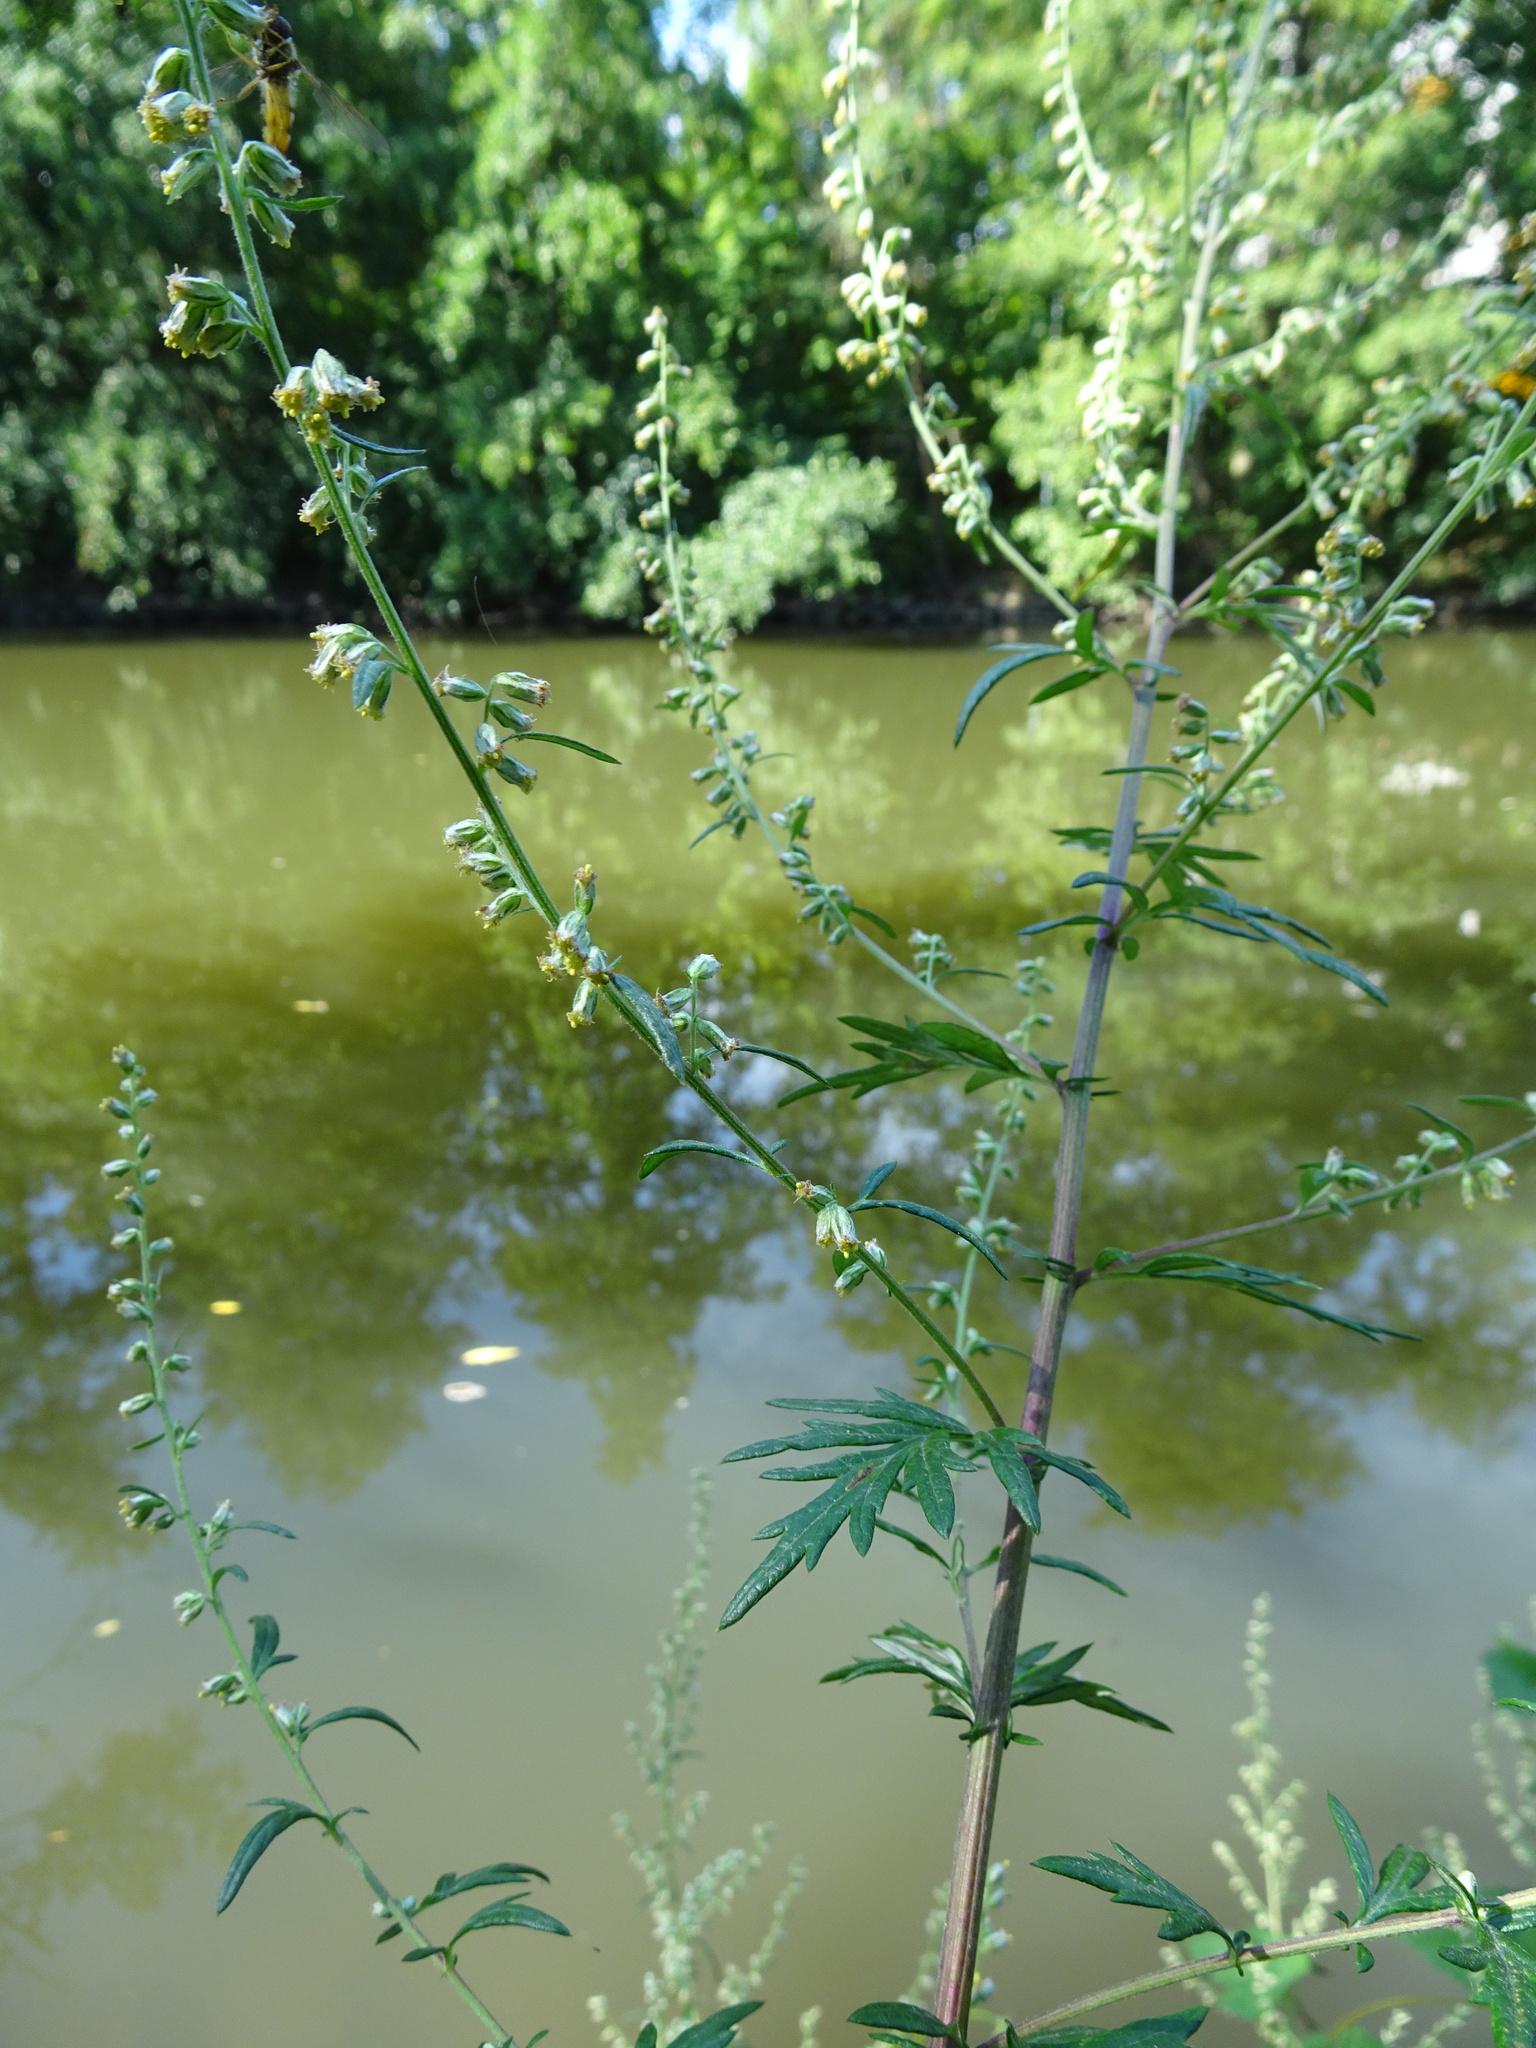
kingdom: Plantae
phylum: Tracheophyta
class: Magnoliopsida
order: Asterales
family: Asteraceae
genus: Artemisia
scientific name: Artemisia vulgaris
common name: Mugwort
